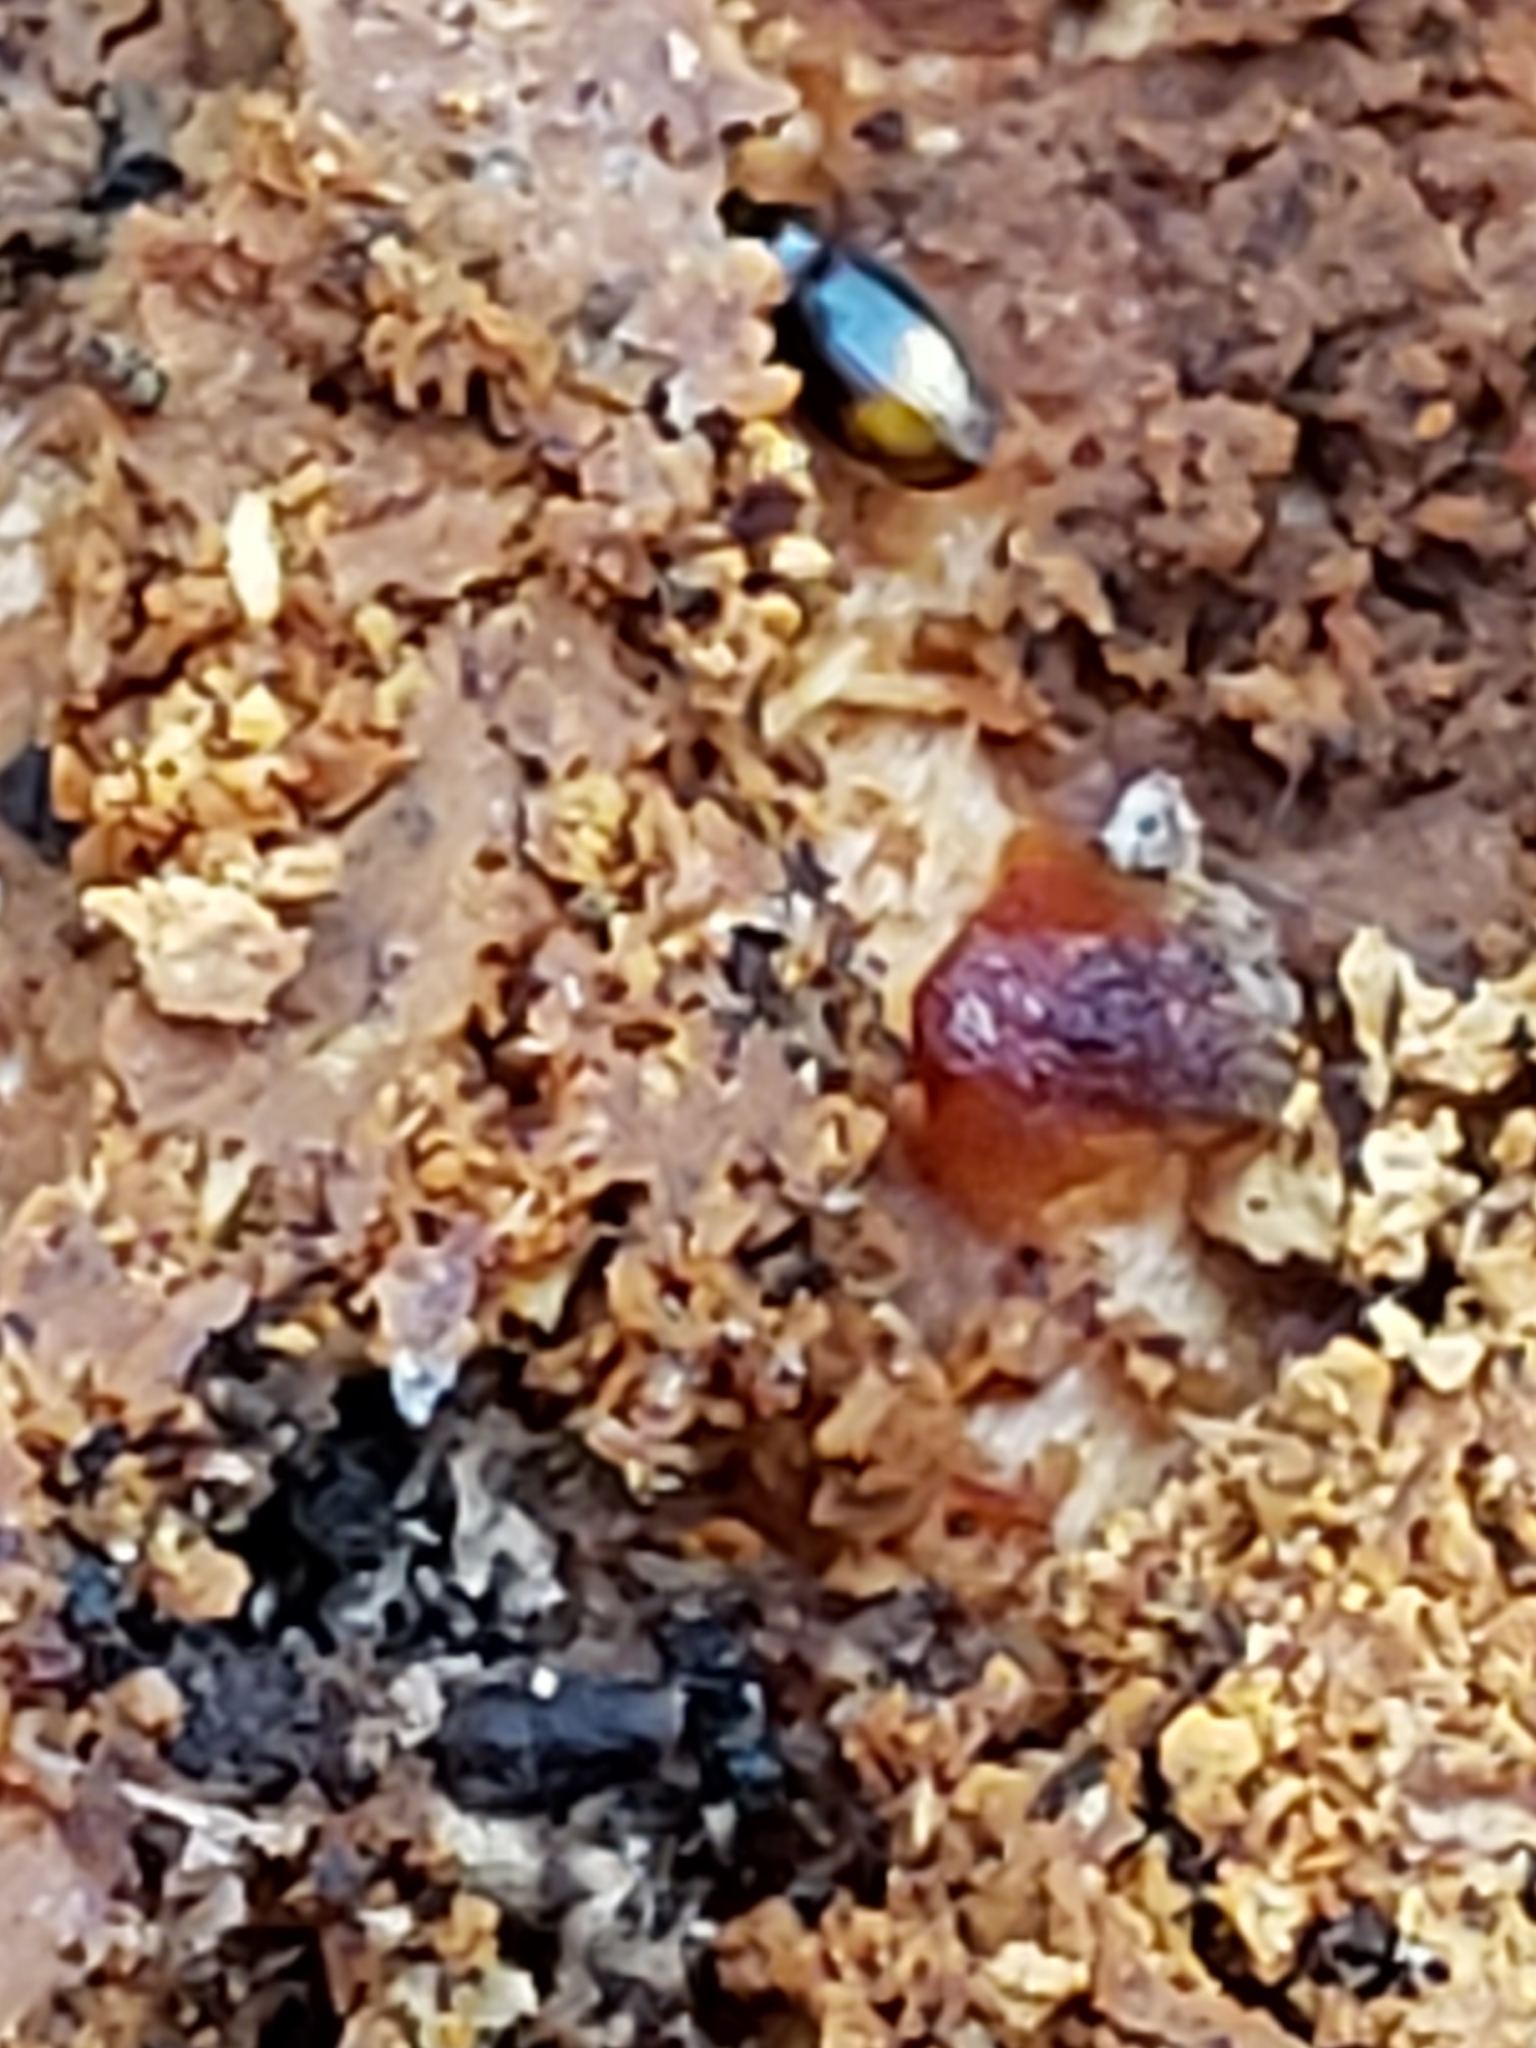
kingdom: Animalia
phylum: Arthropoda
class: Insecta
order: Coleoptera
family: Carabidae
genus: Mioptachys
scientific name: Mioptachys flavicauda
